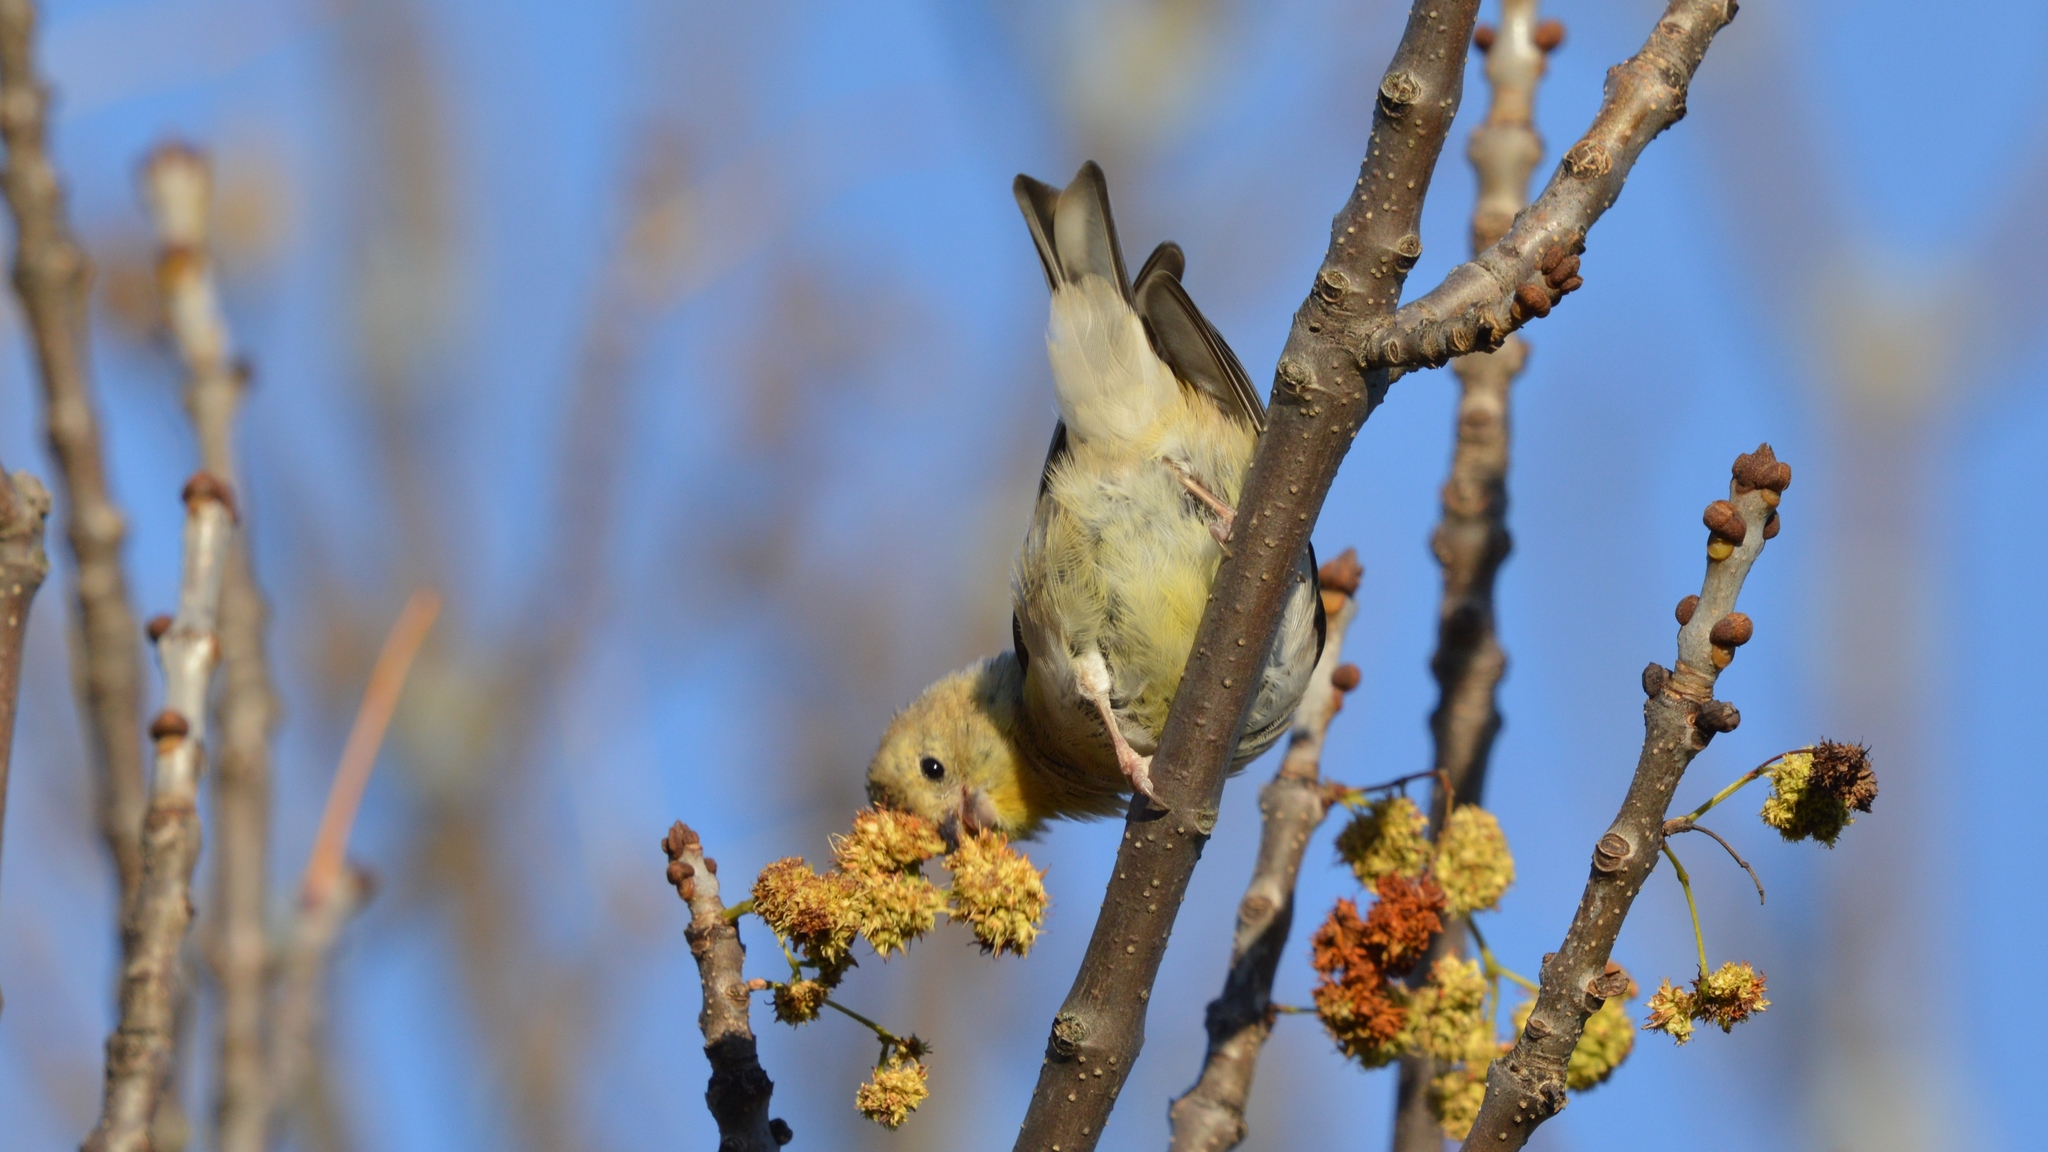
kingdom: Animalia
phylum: Chordata
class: Aves
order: Passeriformes
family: Fringillidae
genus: Spinus
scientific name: Spinus tristis
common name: American goldfinch
